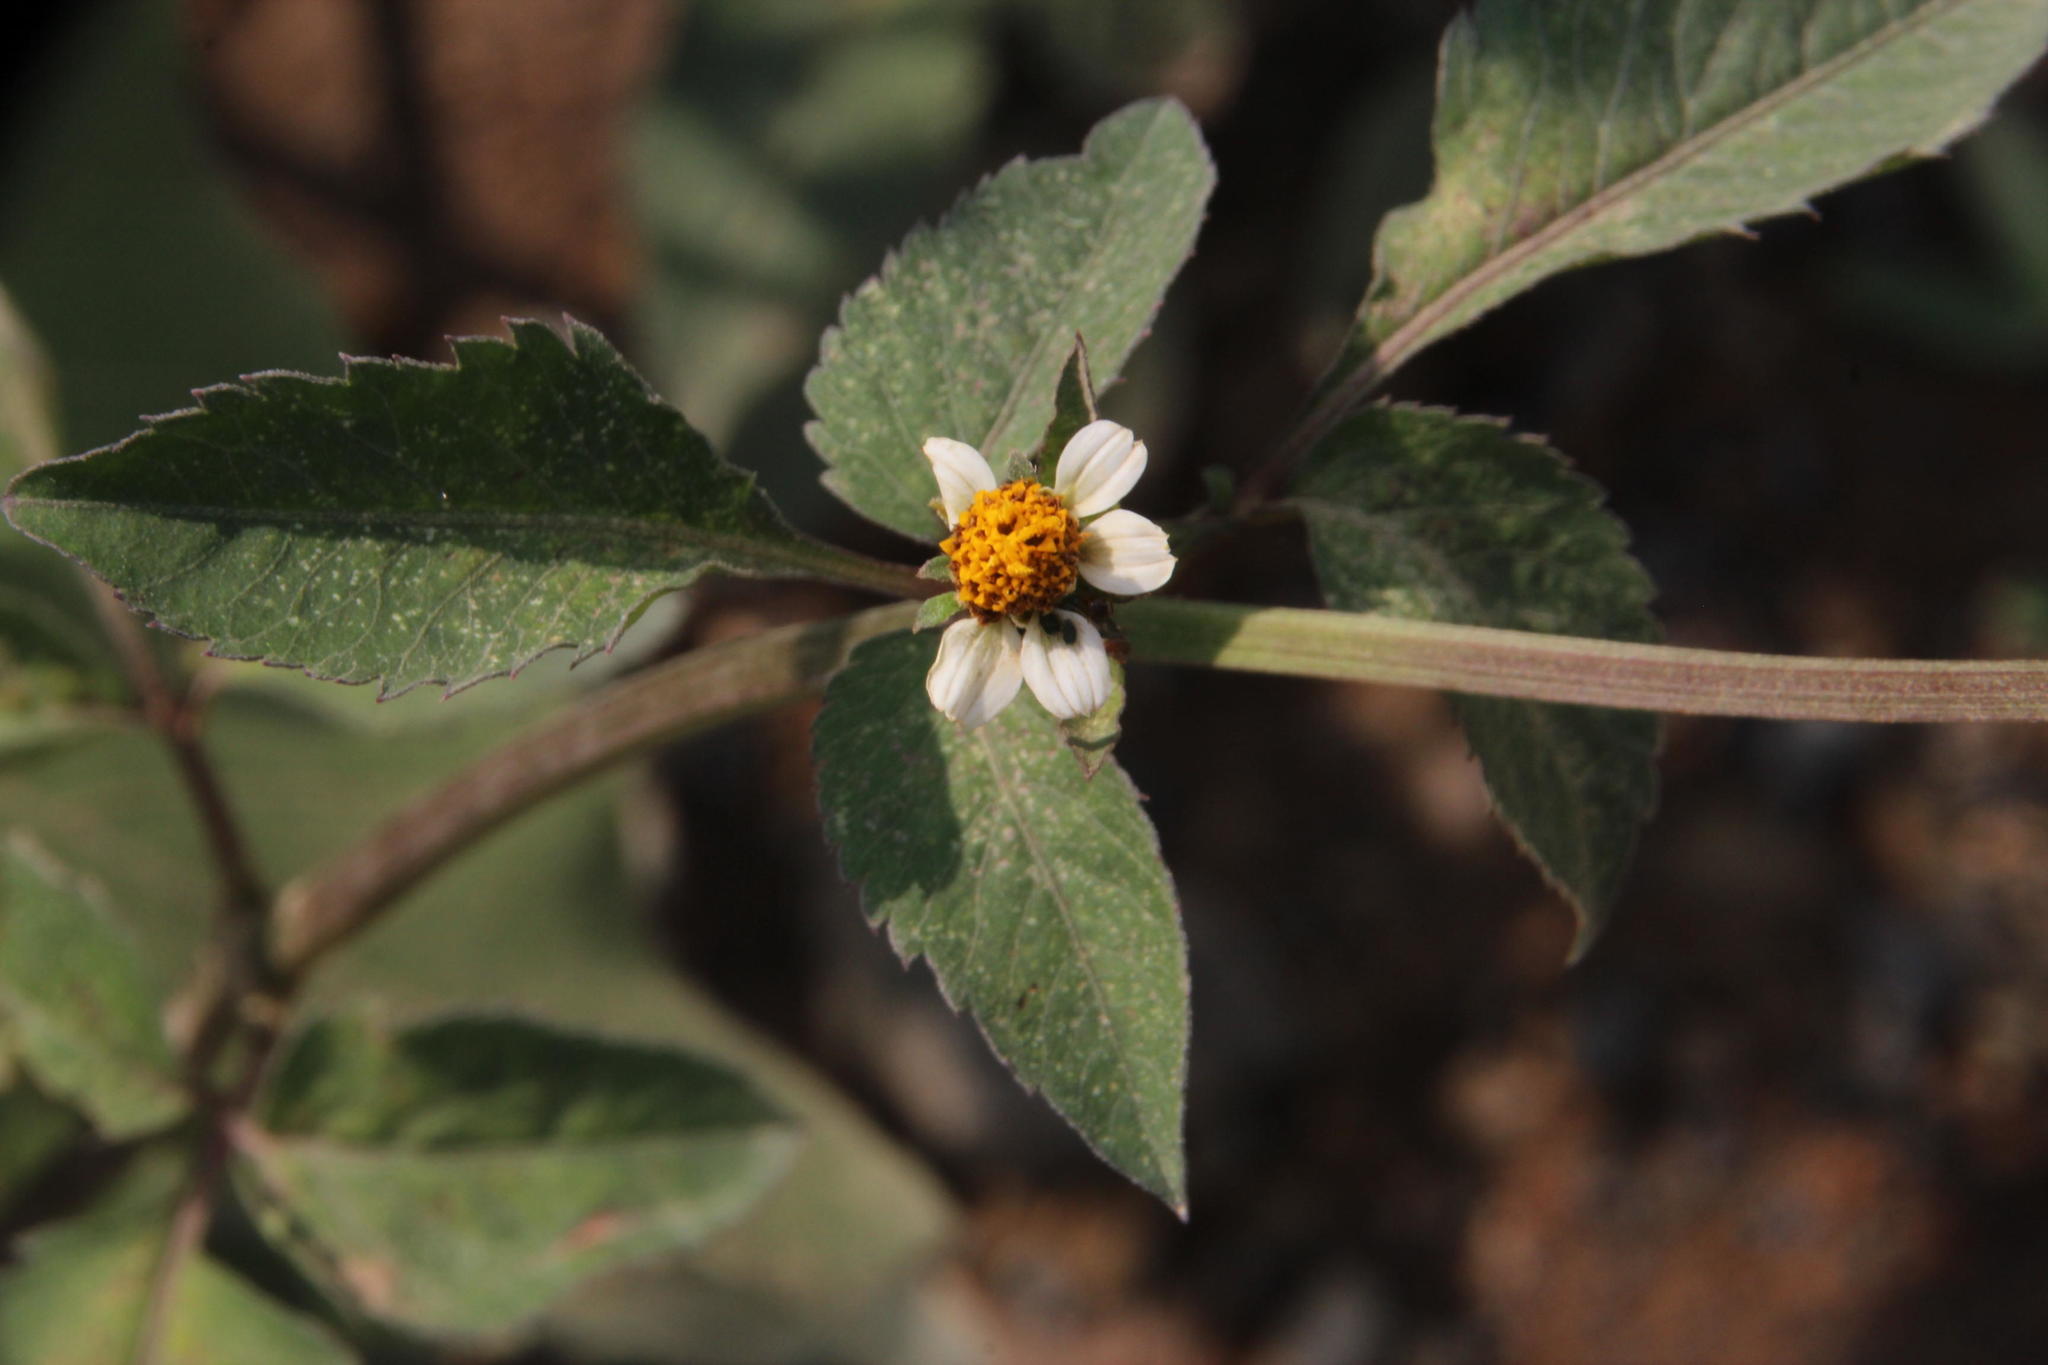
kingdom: Plantae
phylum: Tracheophyta
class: Magnoliopsida
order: Asterales
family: Asteraceae
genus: Bidens
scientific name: Bidens pilosa
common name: Black-jack
